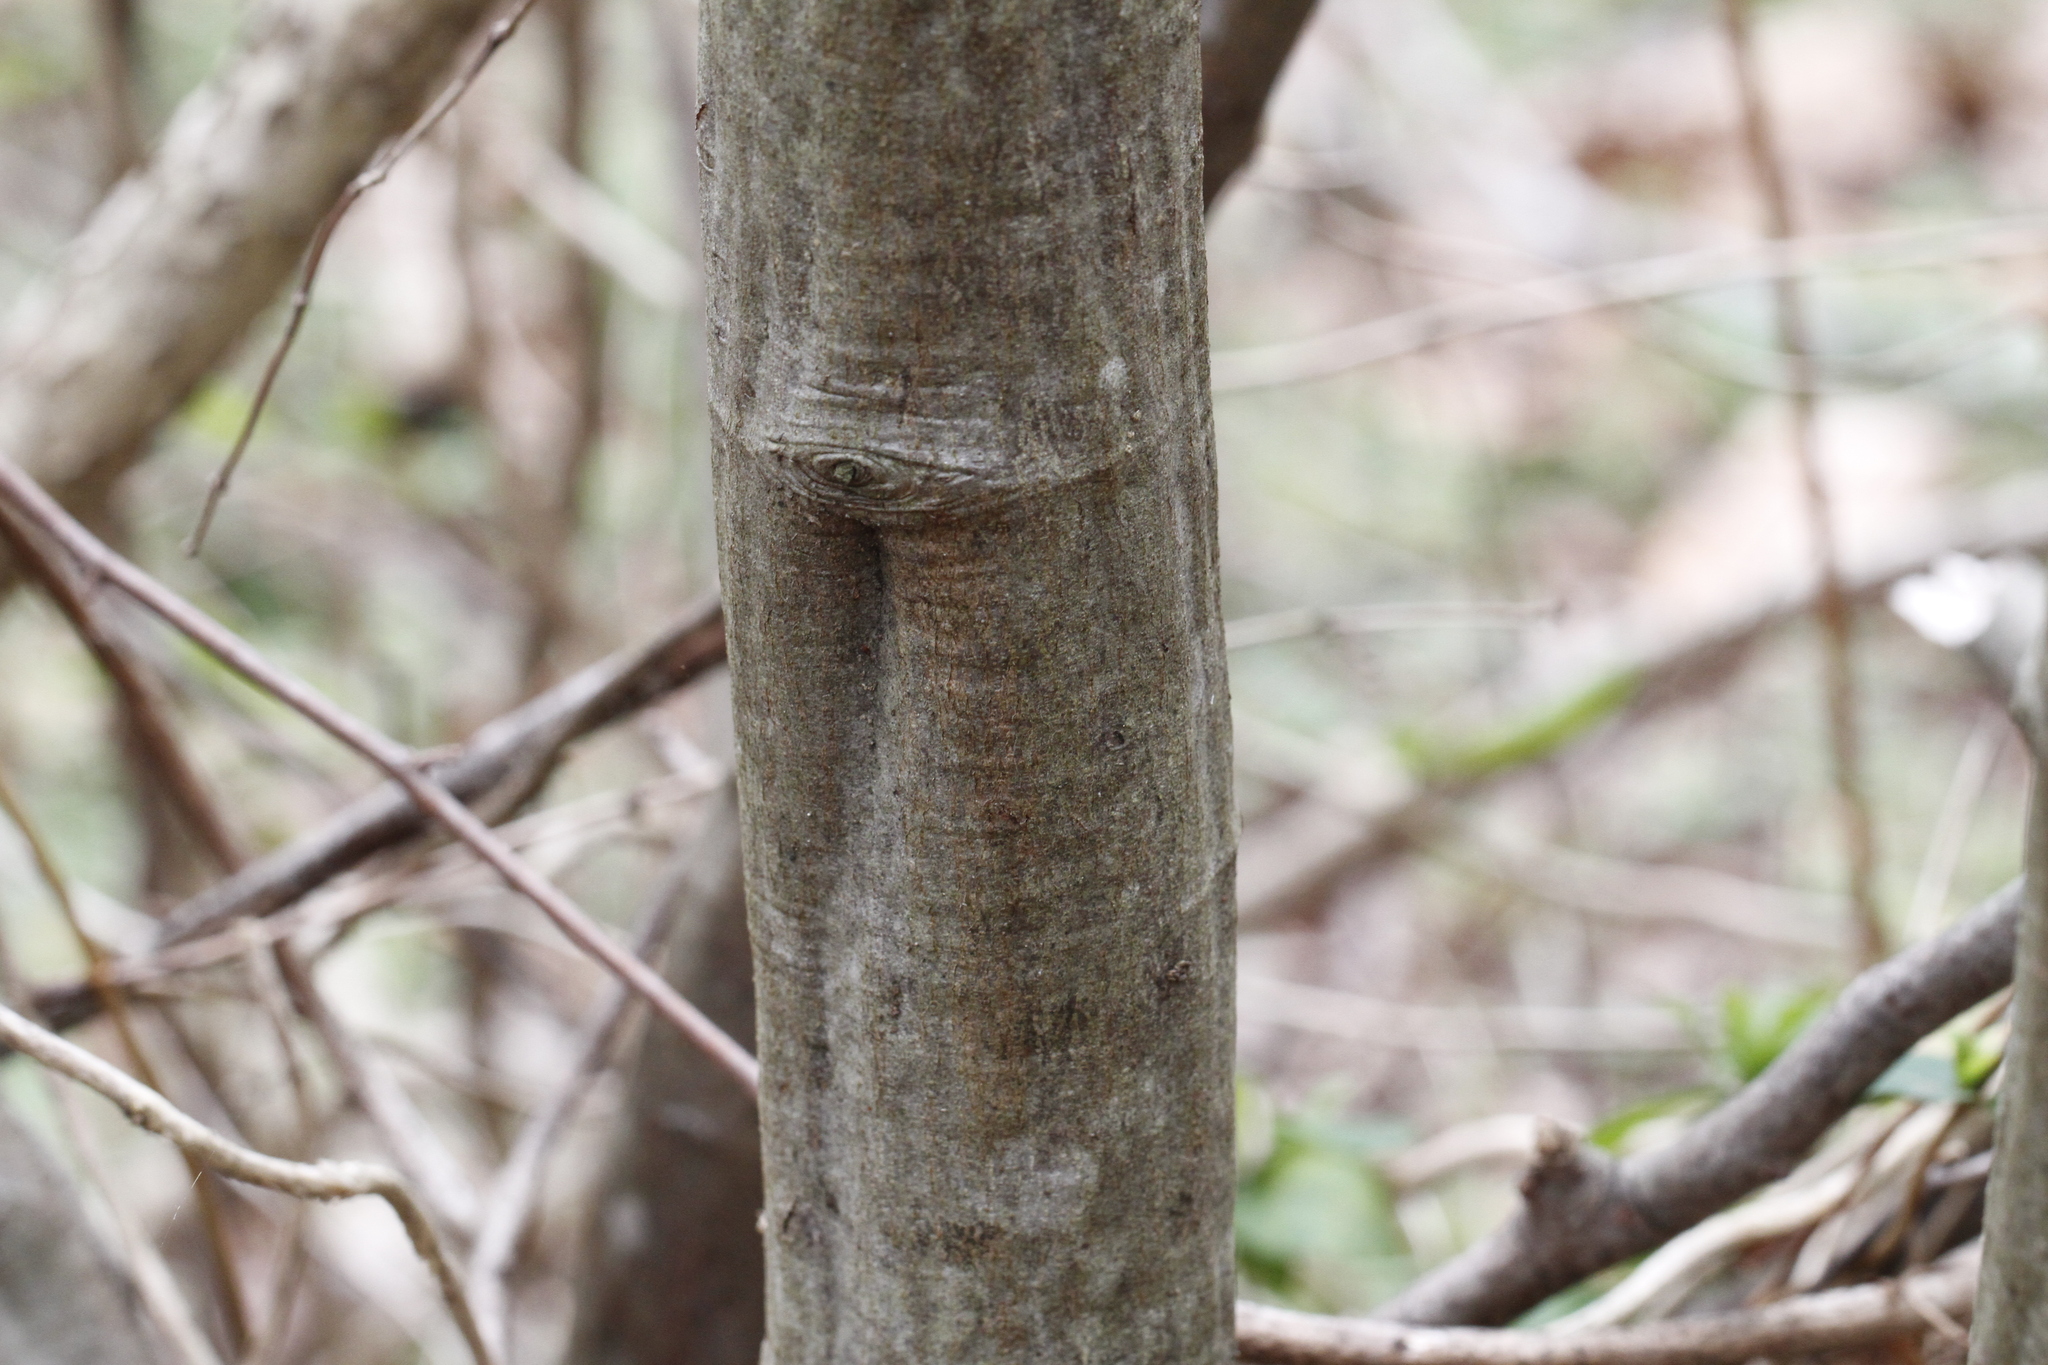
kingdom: Plantae
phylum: Tracheophyta
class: Magnoliopsida
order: Fagales
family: Betulaceae
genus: Alnus
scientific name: Alnus serrulata
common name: Hazel alder
